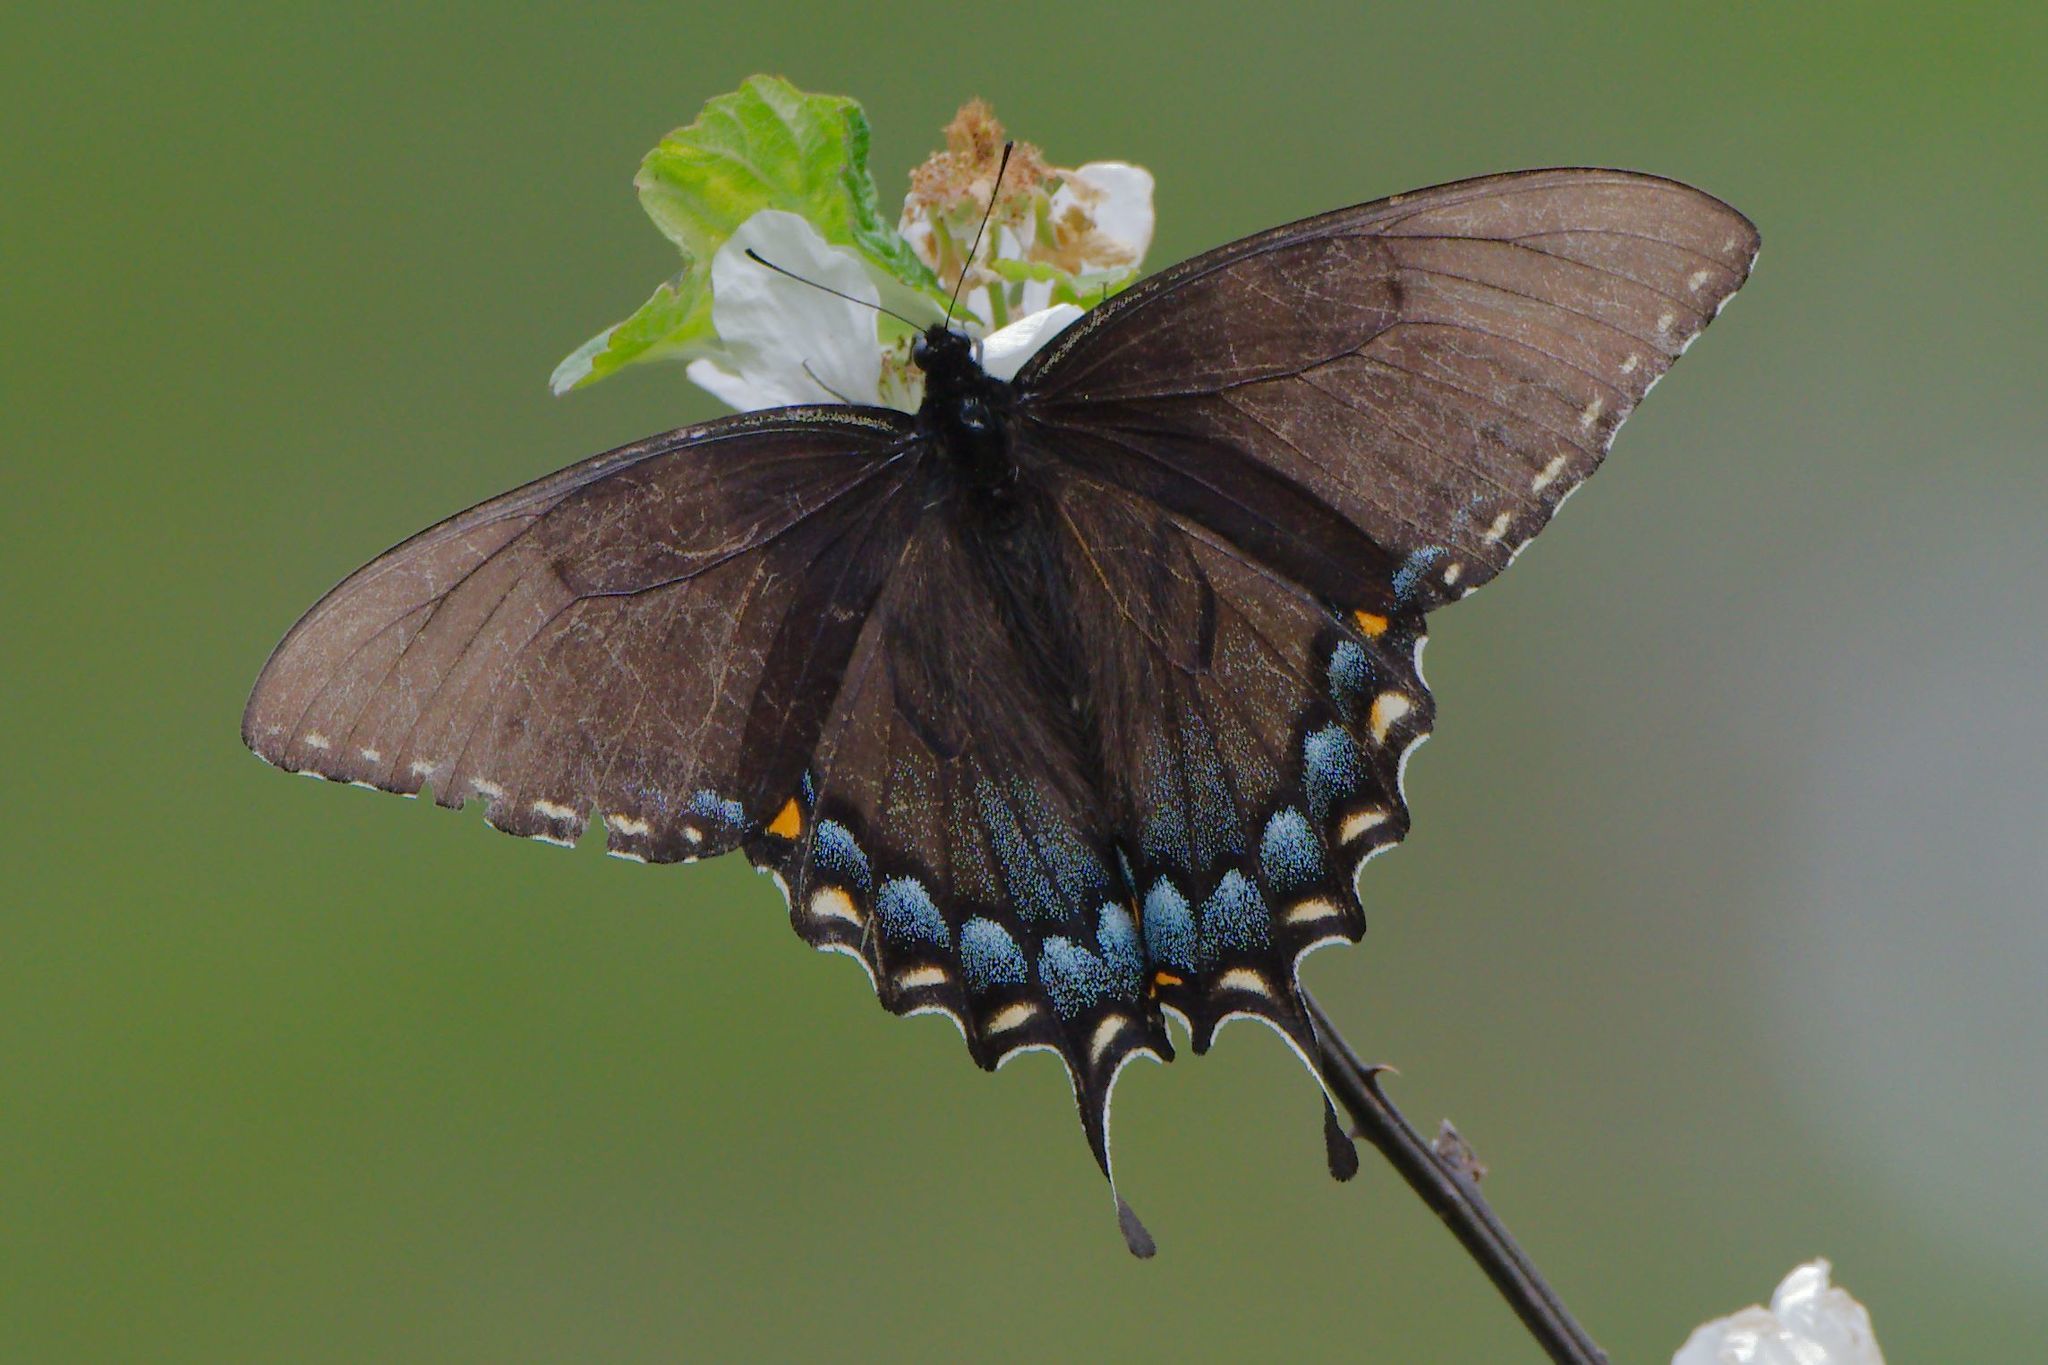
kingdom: Animalia
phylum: Arthropoda
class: Insecta
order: Lepidoptera
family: Papilionidae
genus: Papilio
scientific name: Papilio glaucus
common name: Tiger swallowtail
